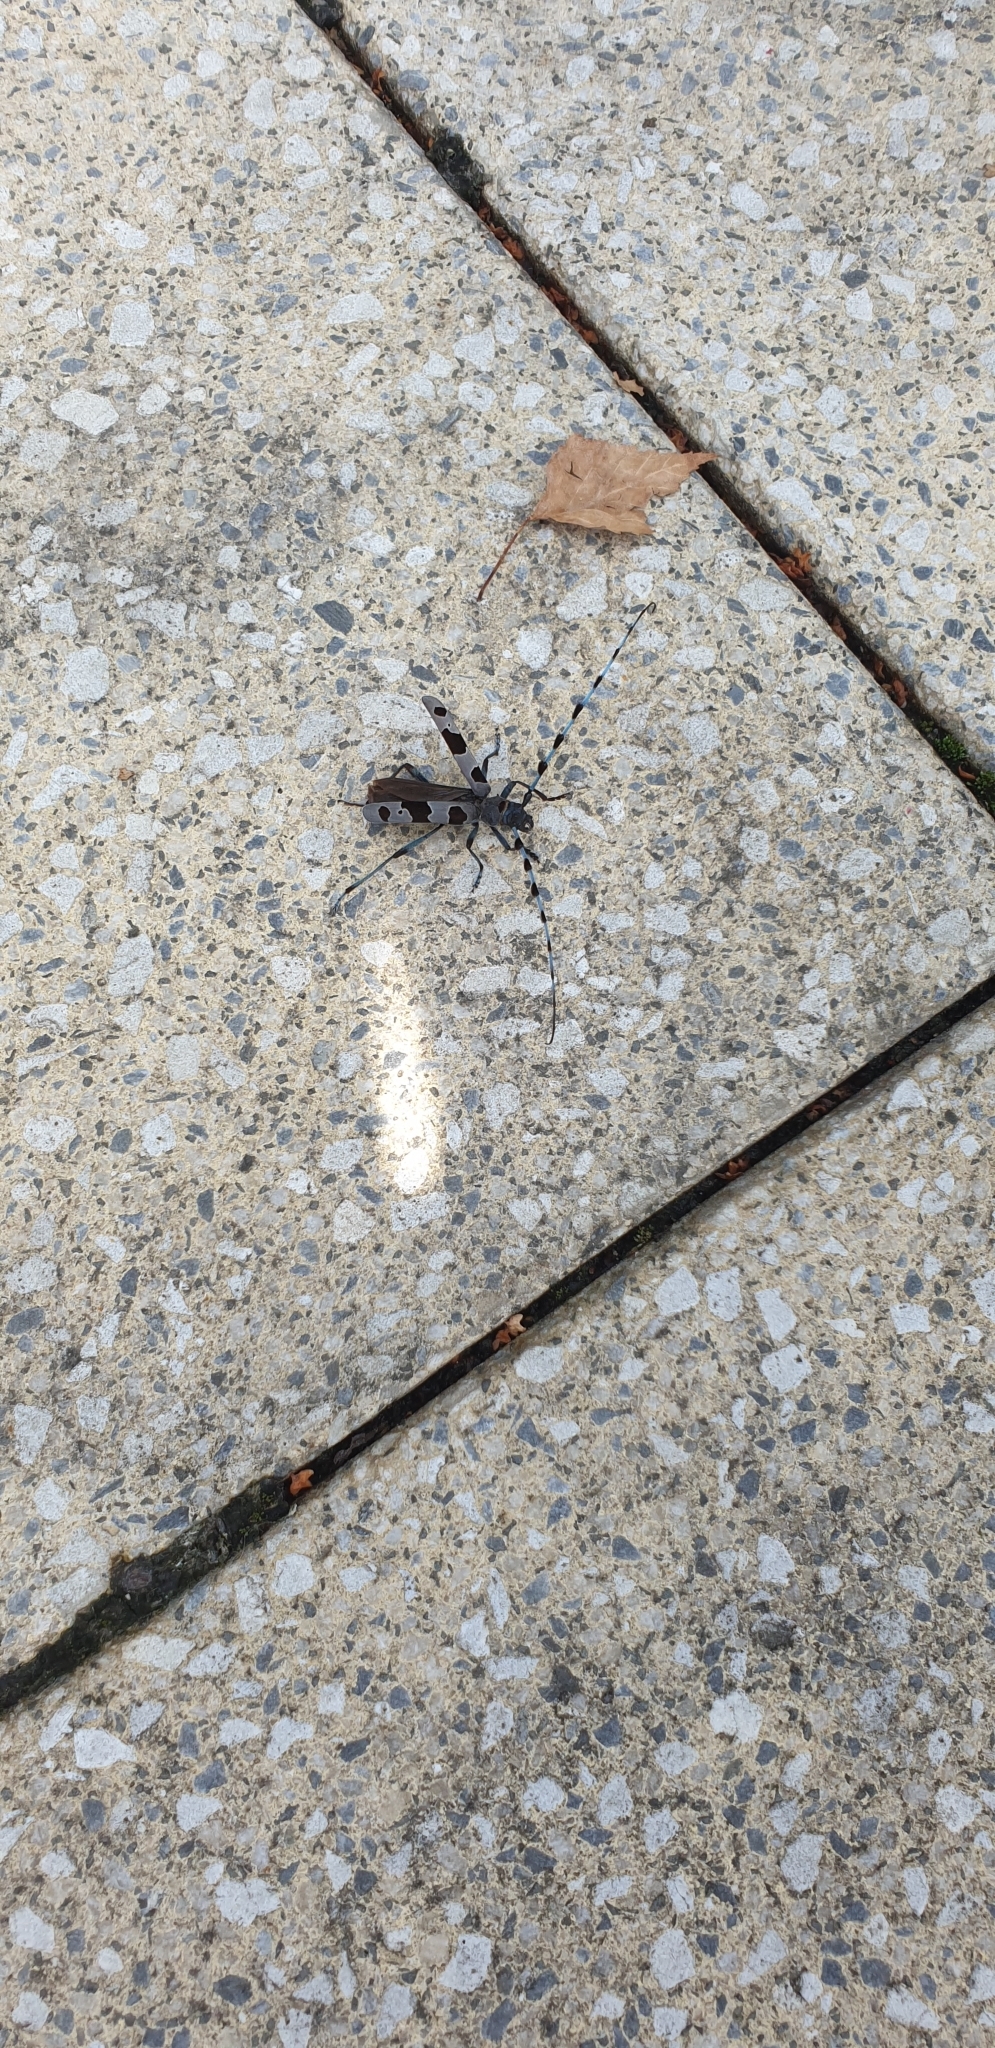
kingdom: Animalia
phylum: Arthropoda
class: Insecta
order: Coleoptera
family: Cerambycidae
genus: Rosalia
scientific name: Rosalia alpina
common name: Rosalia longicorn
